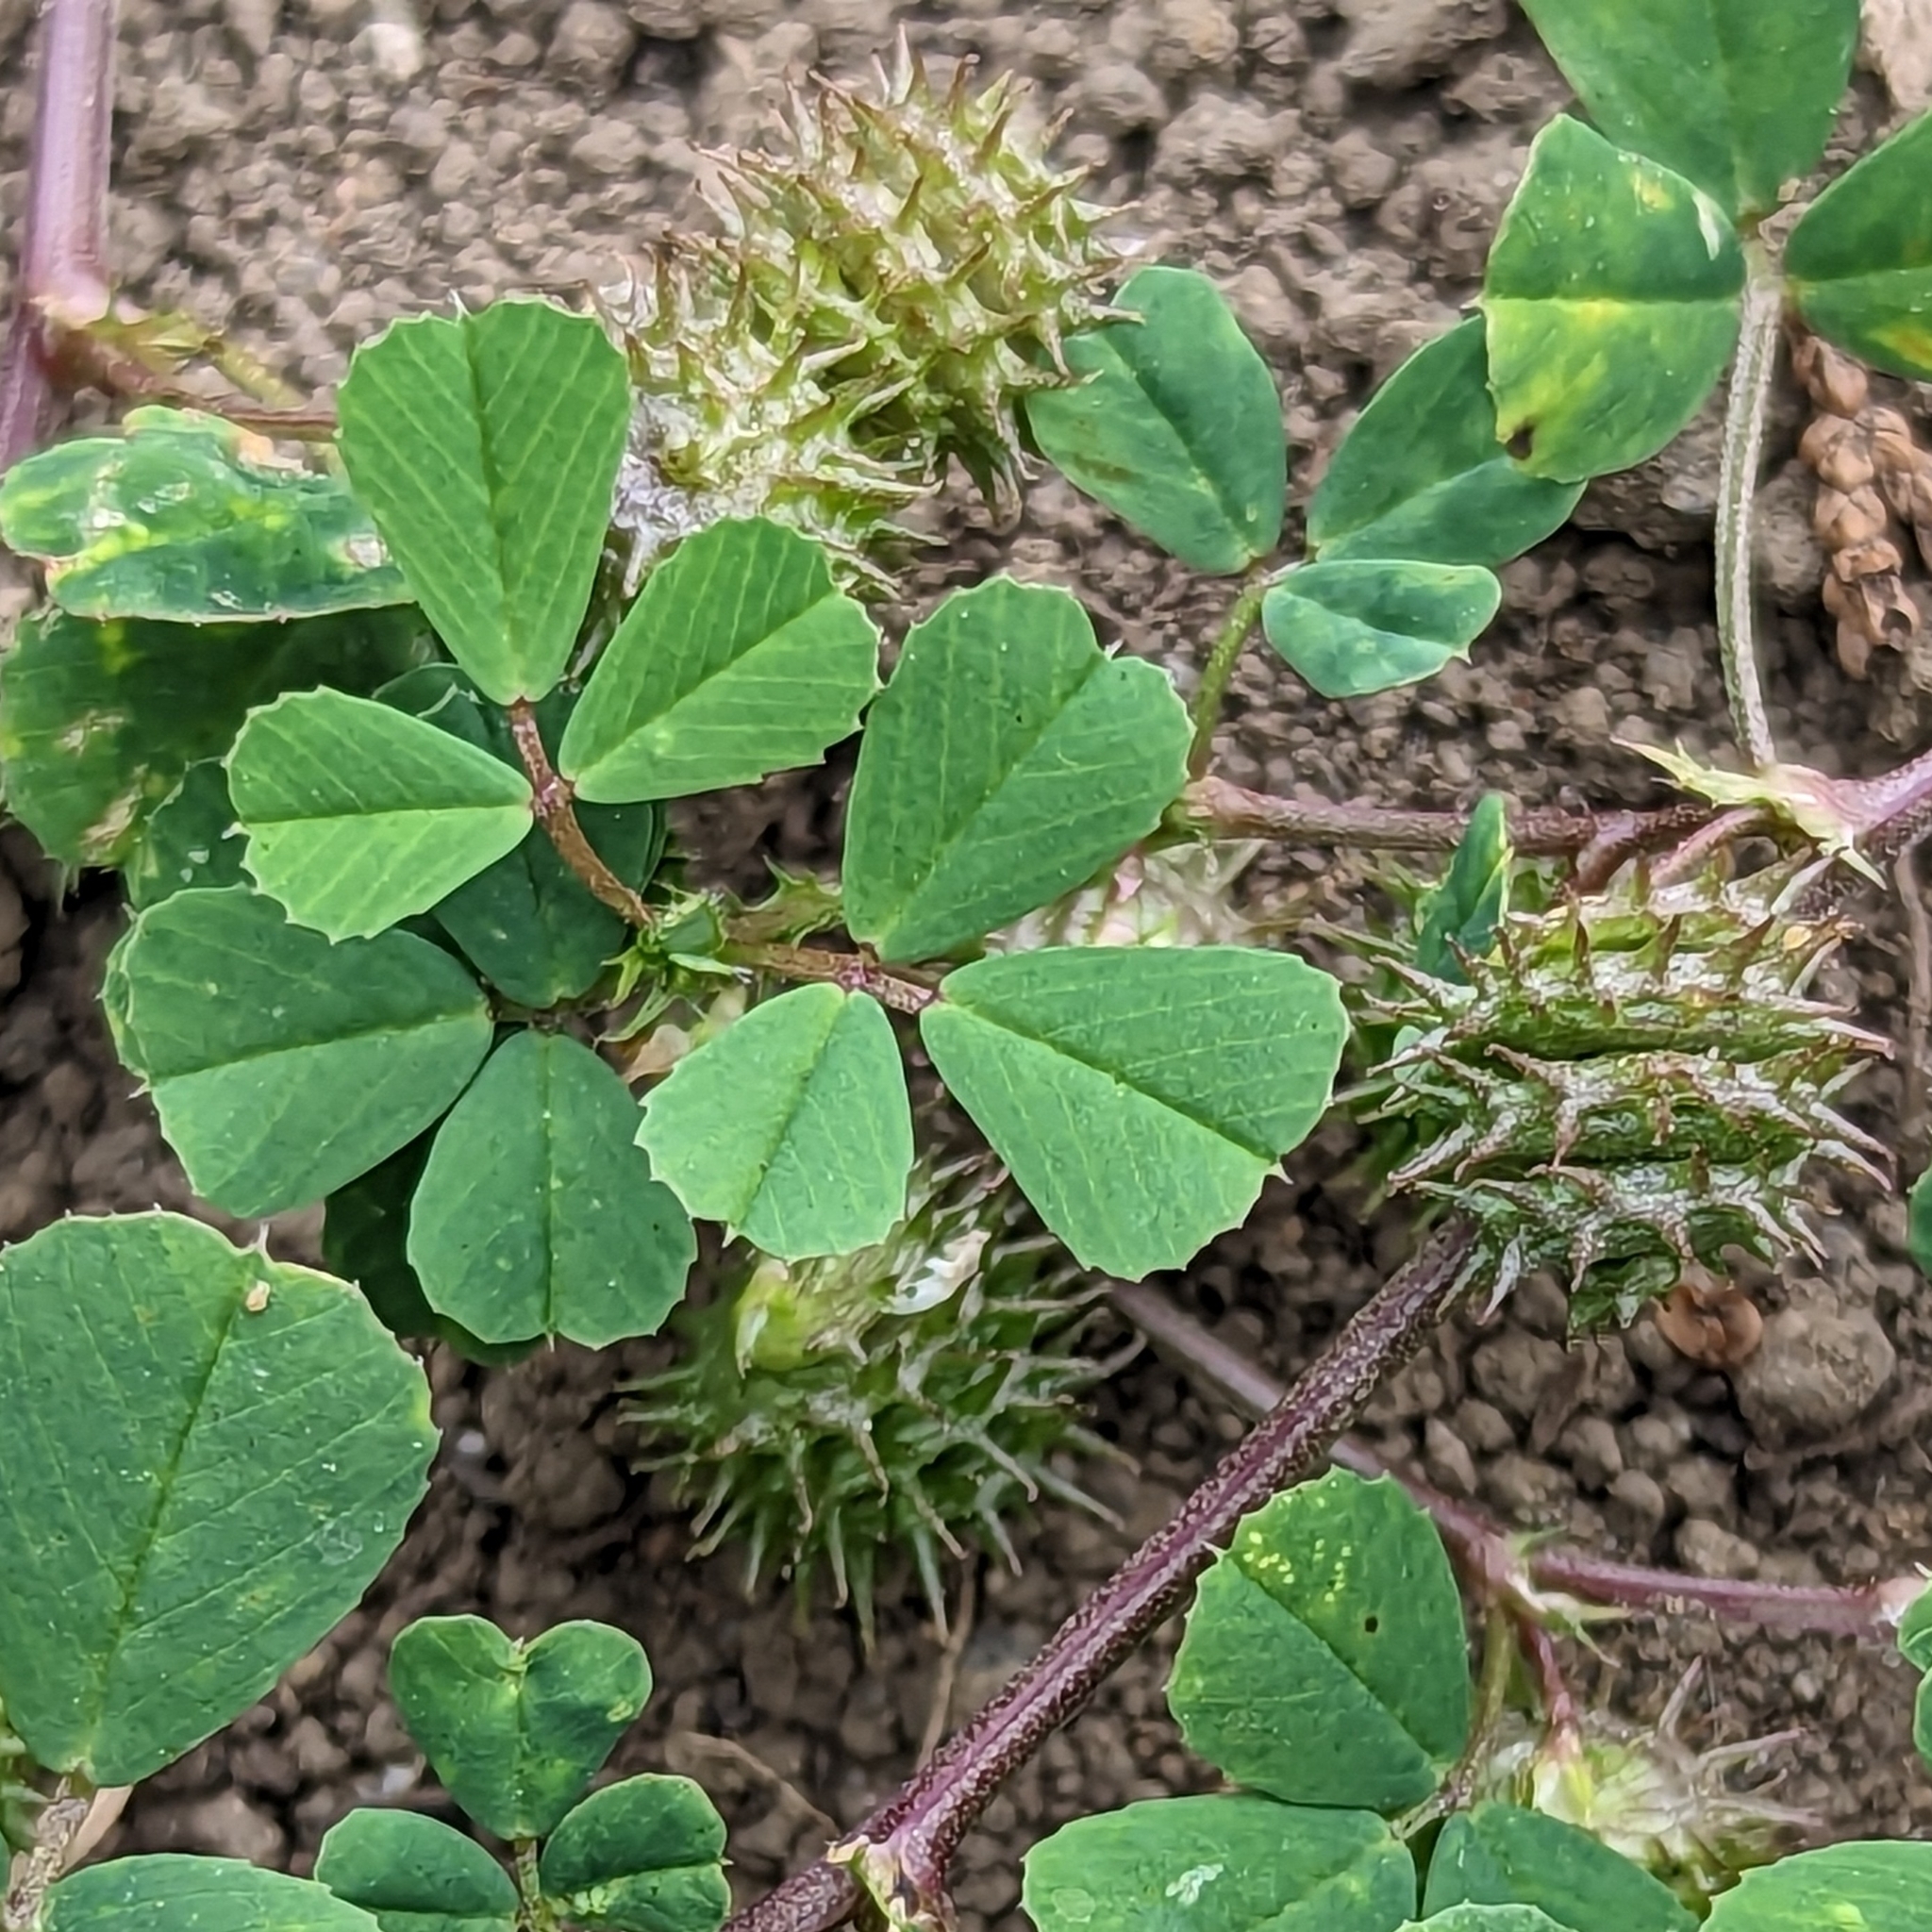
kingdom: Plantae
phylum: Tracheophyta
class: Magnoliopsida
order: Fabales
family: Fabaceae
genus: Medicago
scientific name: Medicago polymorpha
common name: Burclover
